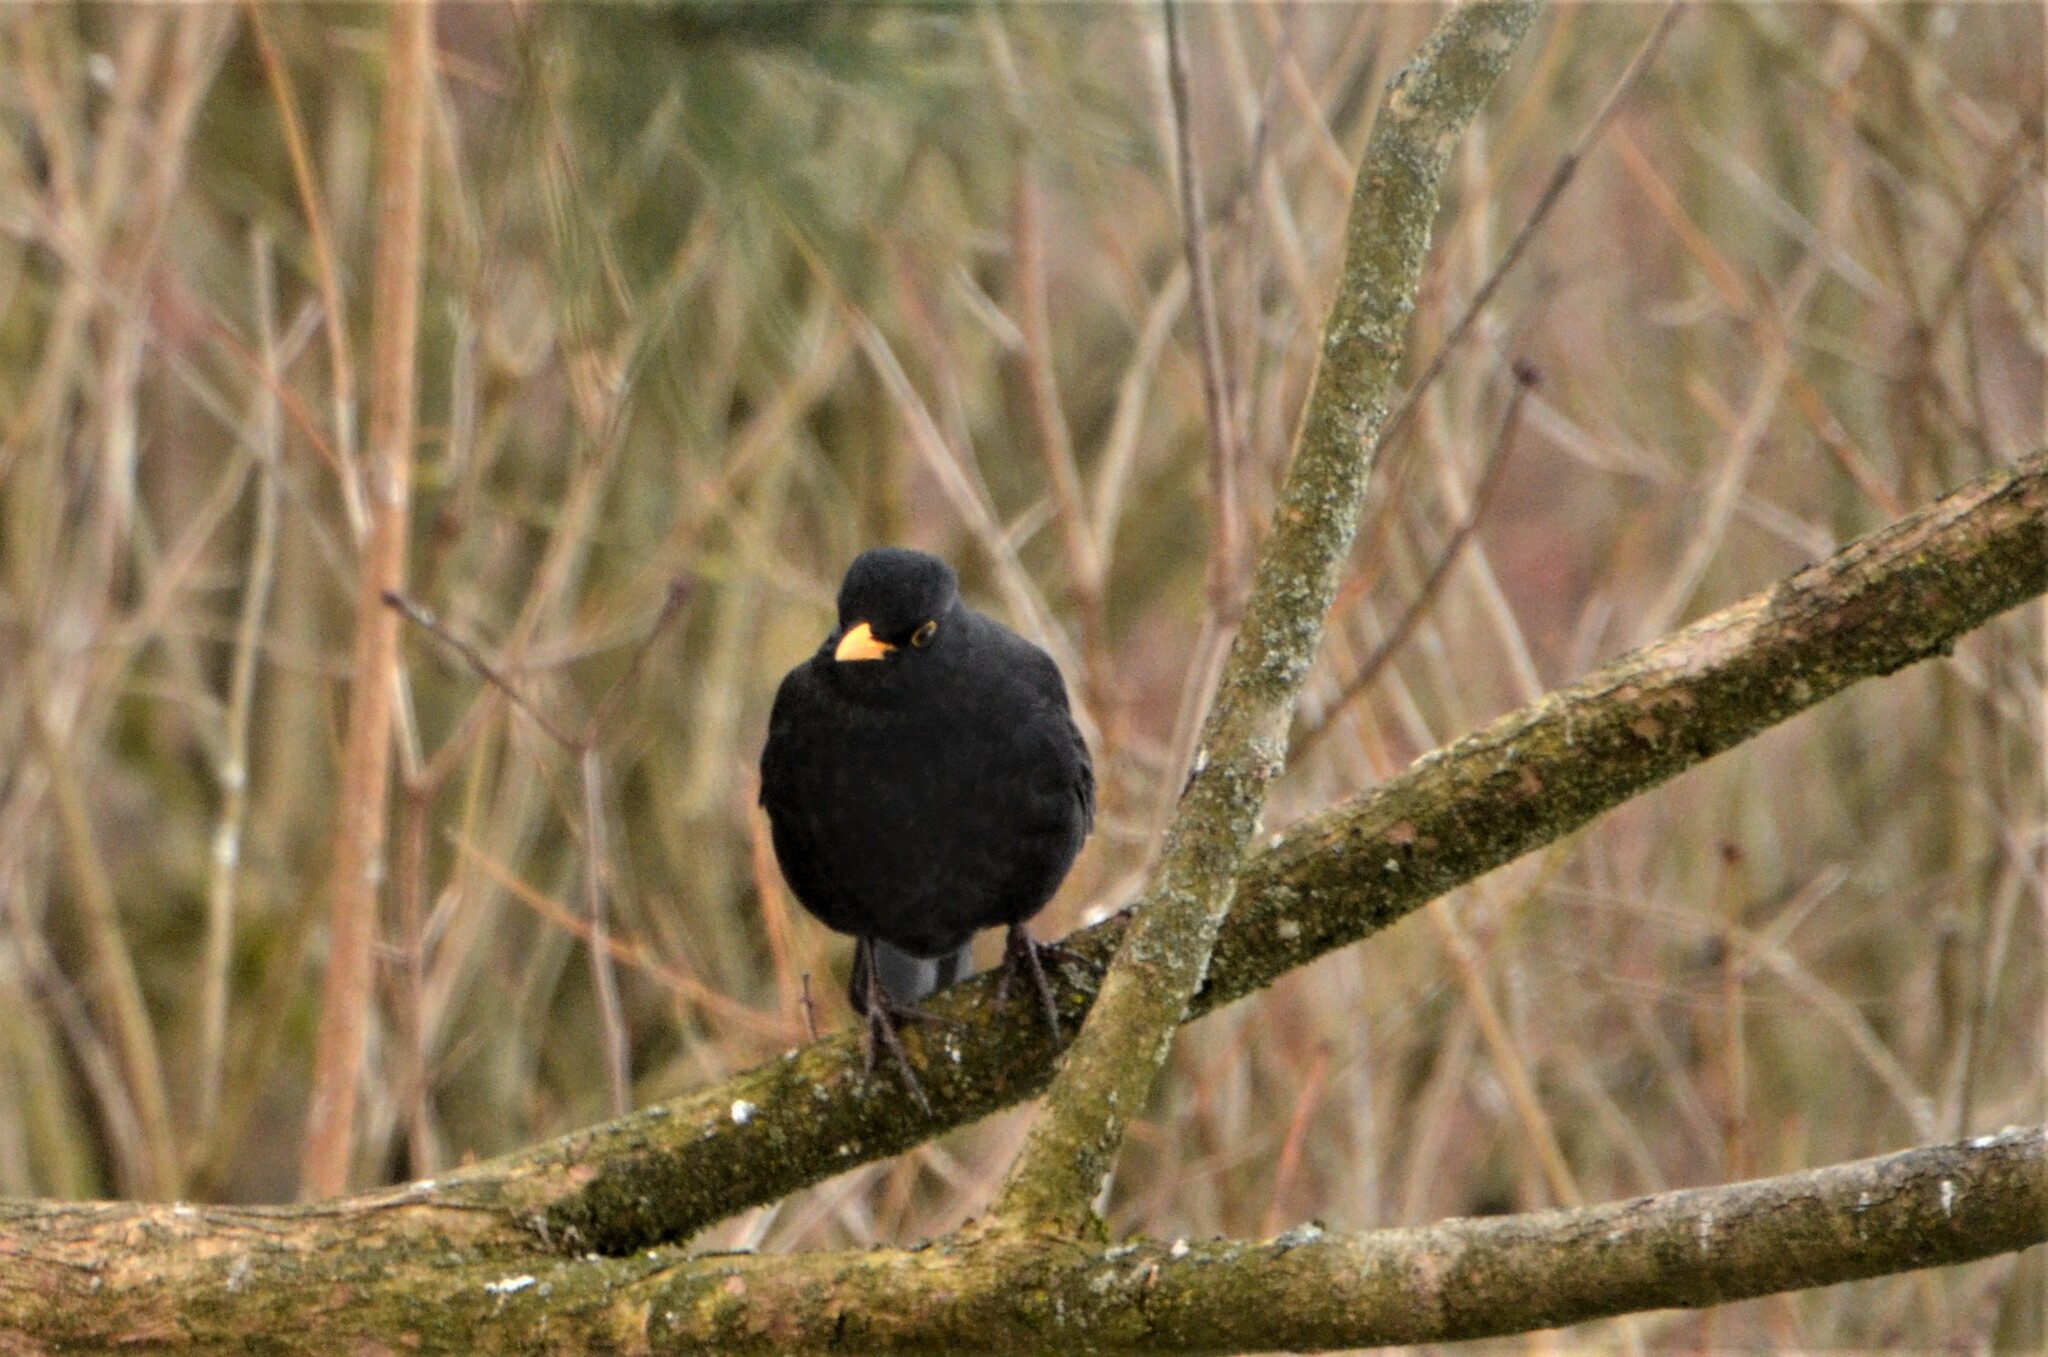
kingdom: Animalia
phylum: Chordata
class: Aves
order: Passeriformes
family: Turdidae
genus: Turdus
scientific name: Turdus merula
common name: Common blackbird
